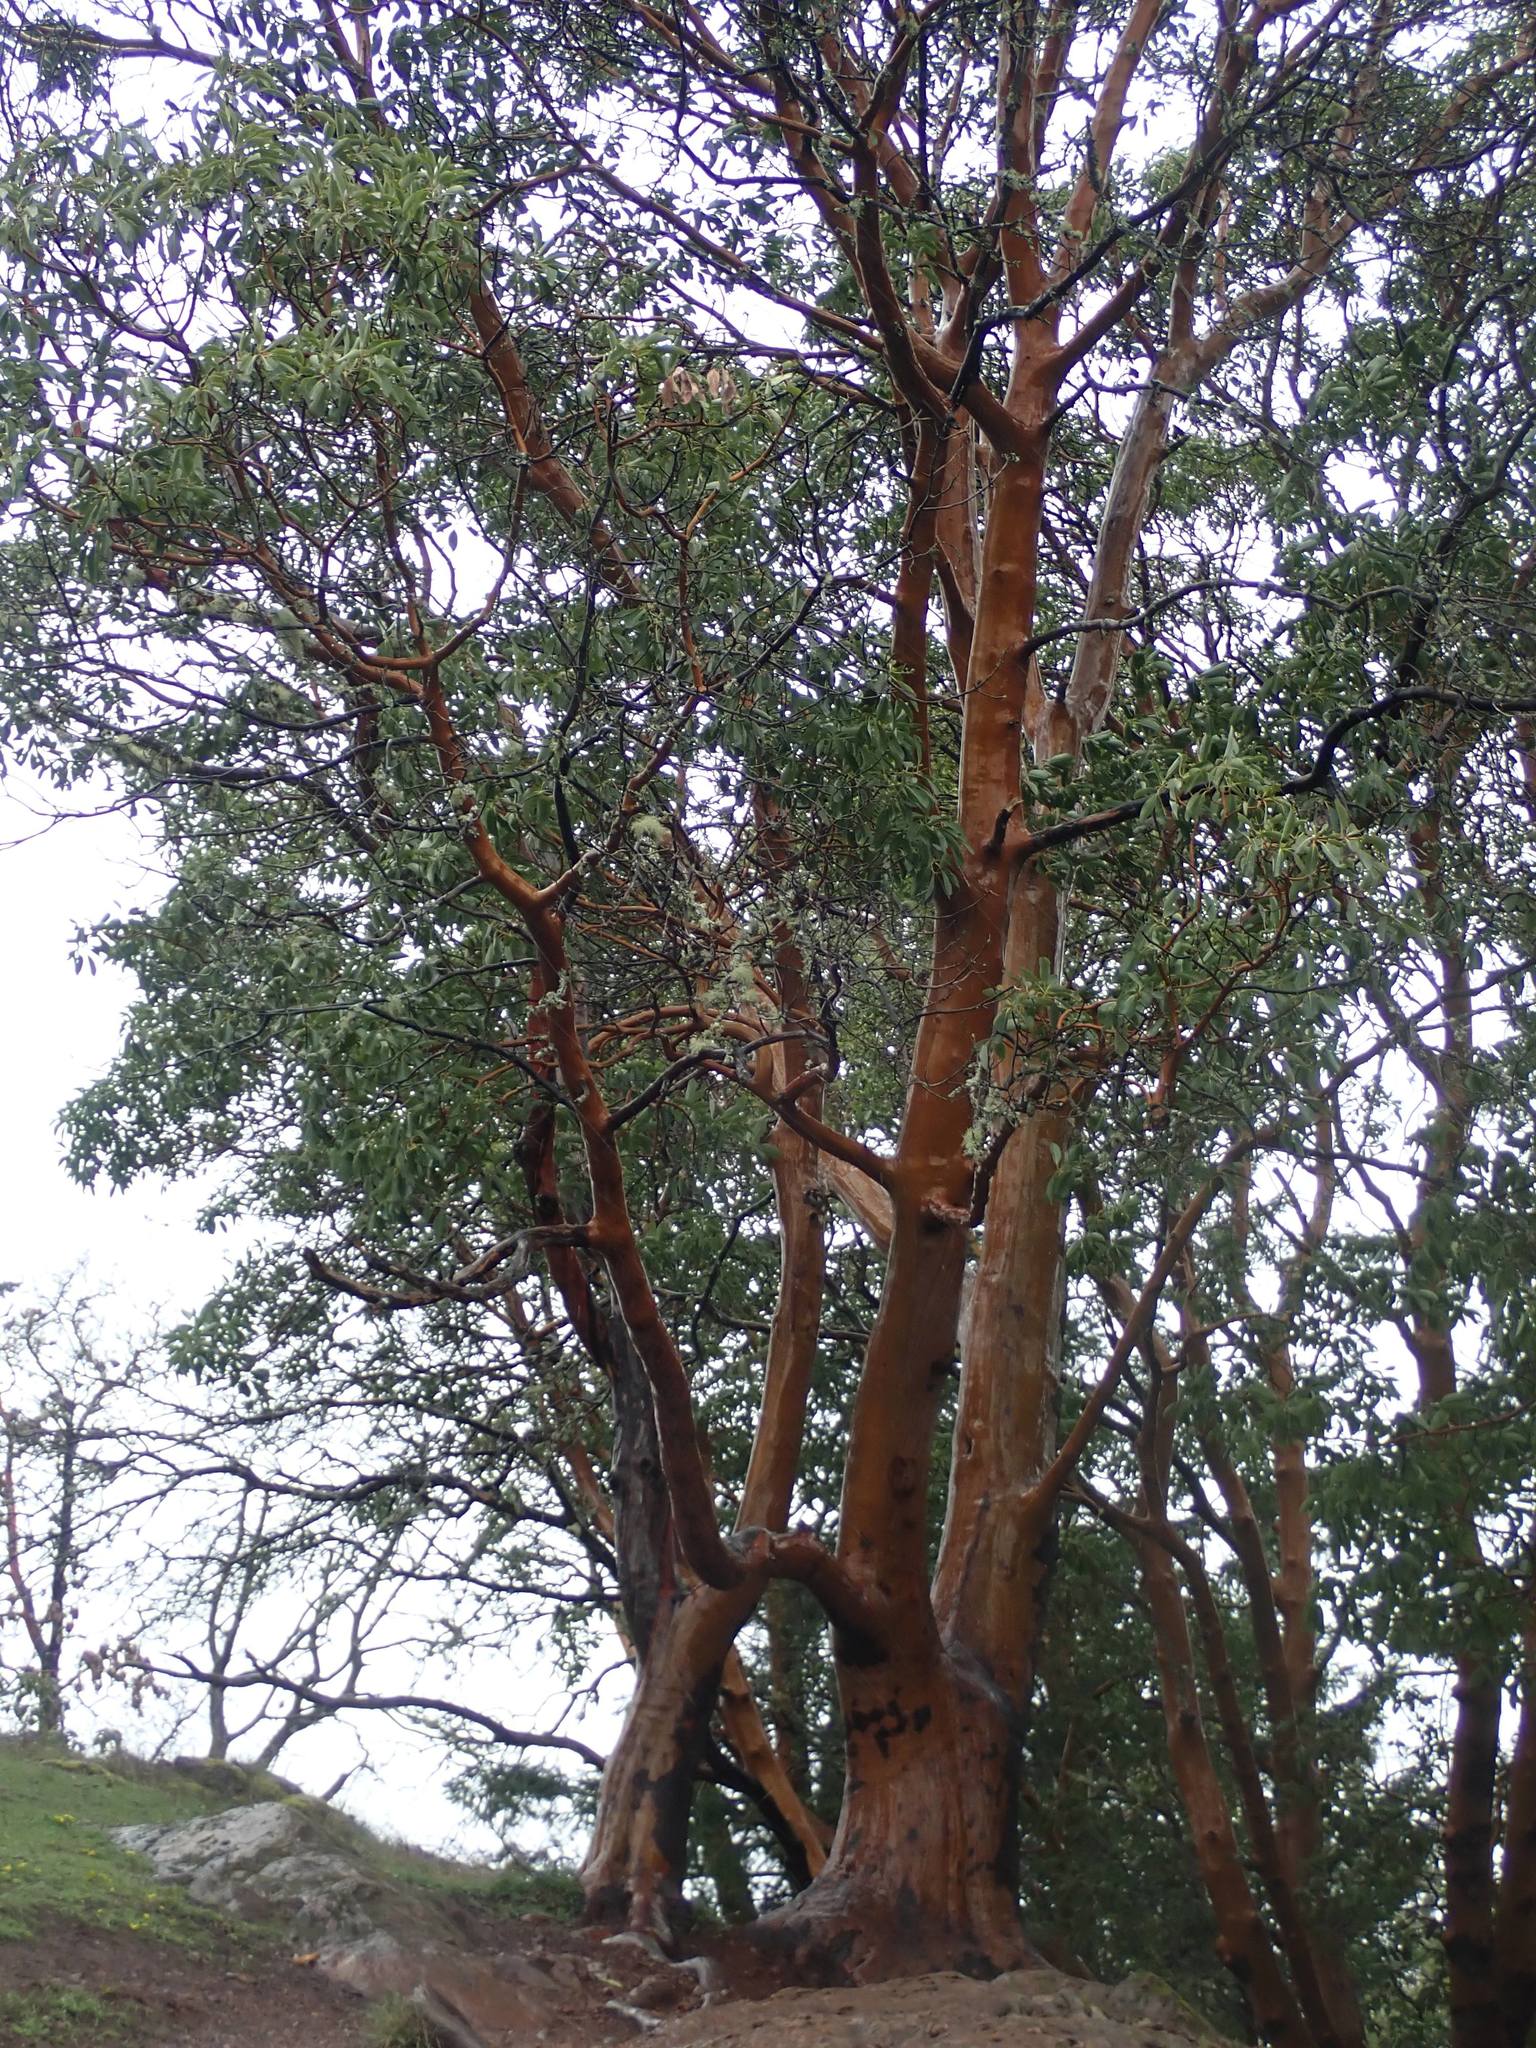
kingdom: Plantae
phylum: Tracheophyta
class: Magnoliopsida
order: Ericales
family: Ericaceae
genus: Arbutus
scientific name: Arbutus menziesii
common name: Pacific madrone
